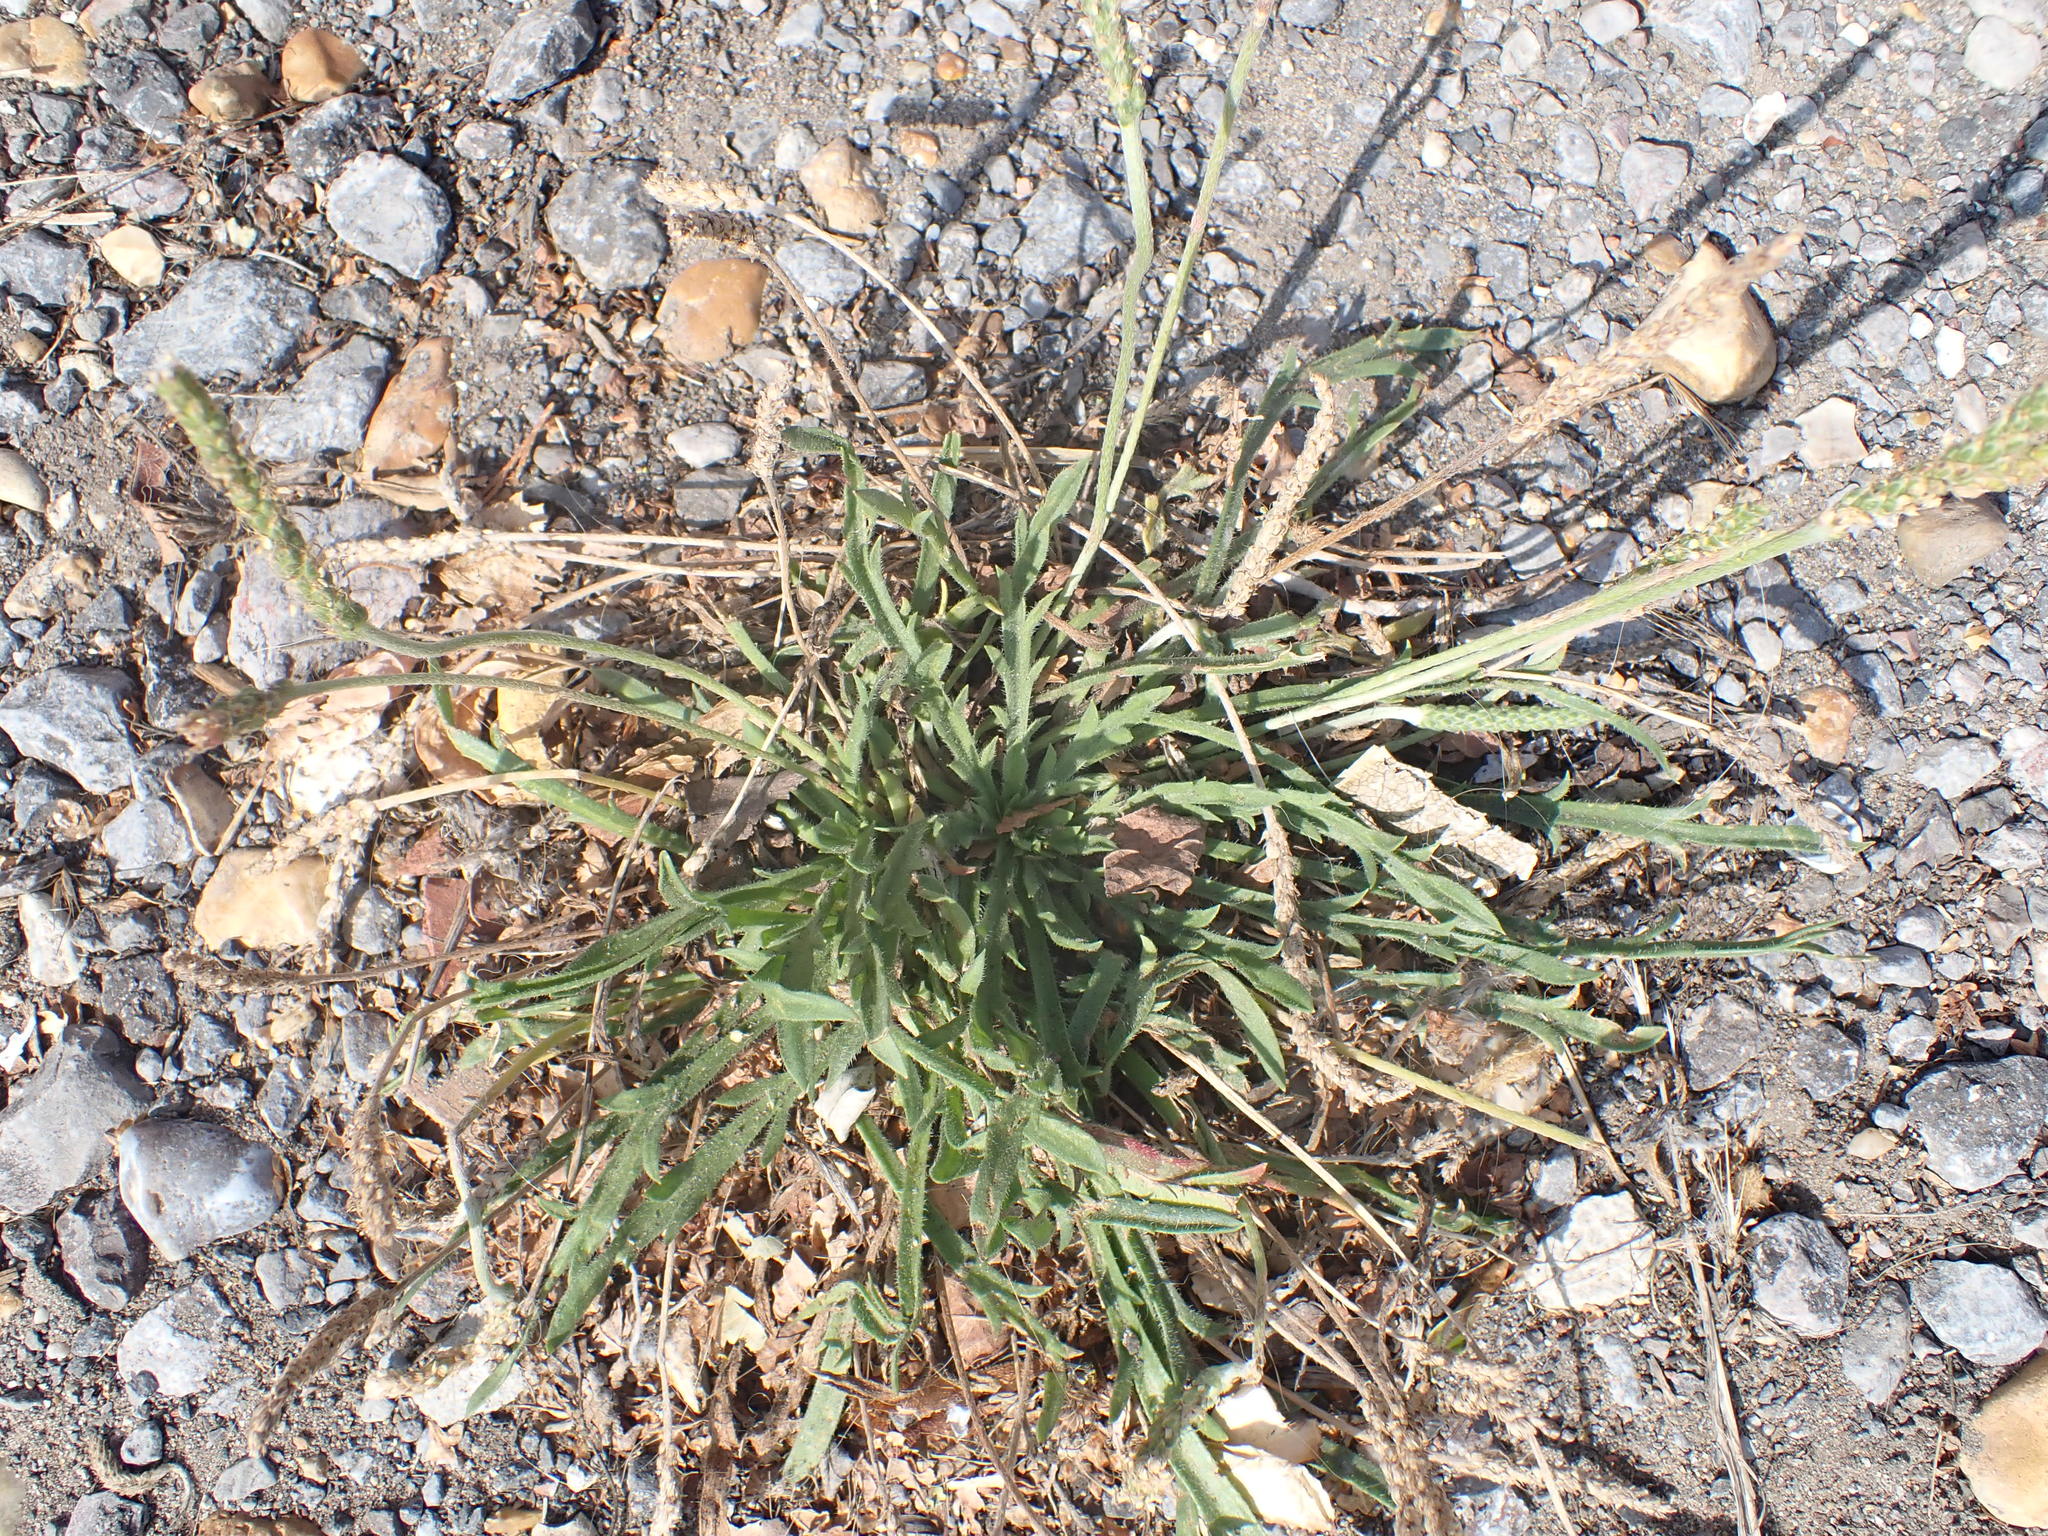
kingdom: Plantae
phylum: Tracheophyta
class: Magnoliopsida
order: Lamiales
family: Plantaginaceae
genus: Plantago
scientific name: Plantago coronopus
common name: Buck's-horn plantain
